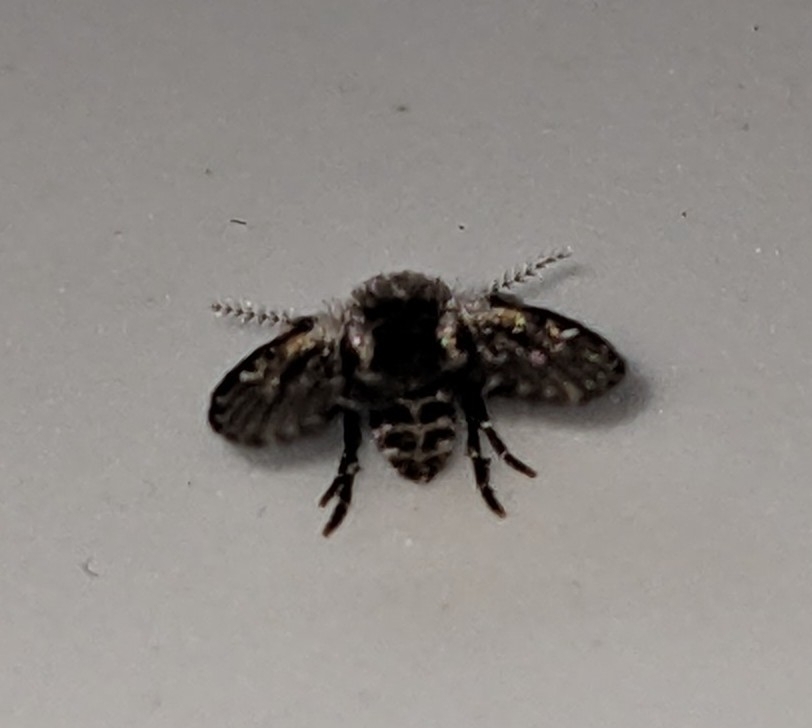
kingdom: Animalia
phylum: Arthropoda
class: Insecta
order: Diptera
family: Psychodidae
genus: Clogmia
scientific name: Clogmia albipunctatus
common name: White-spotted moth fly
